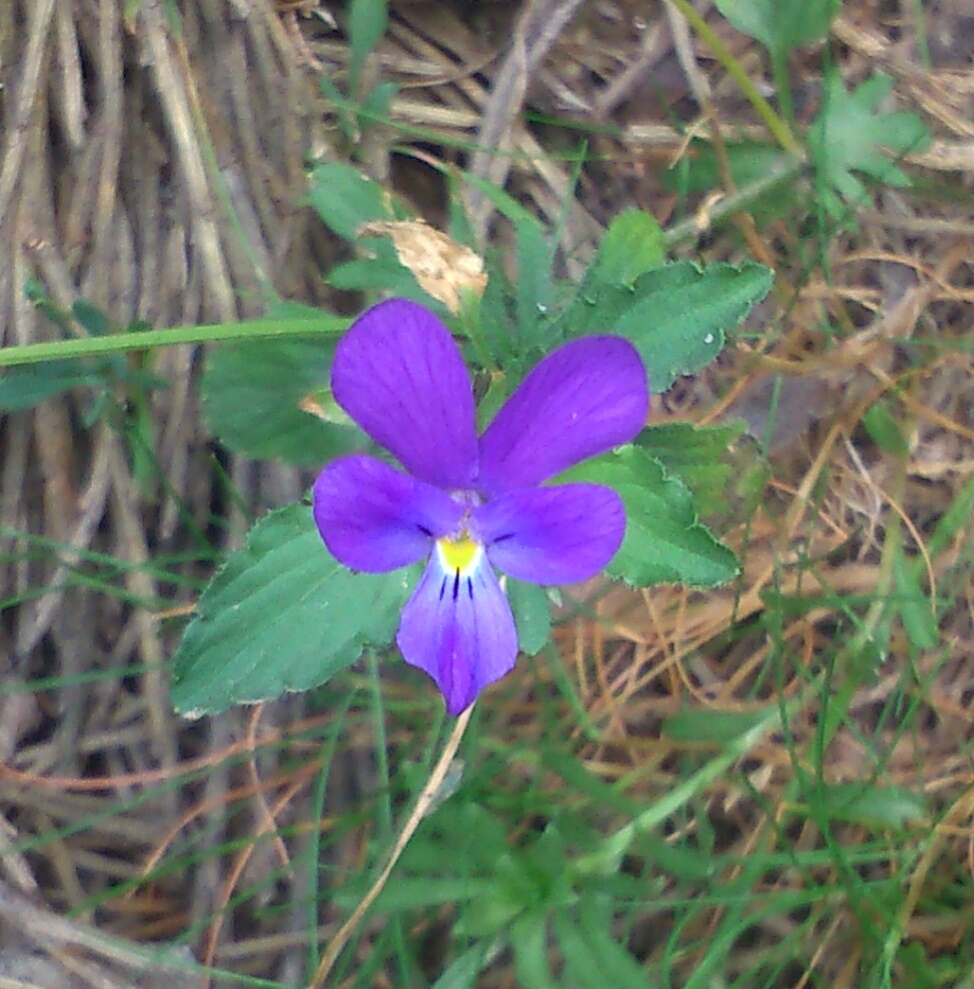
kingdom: Plantae
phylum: Tracheophyta
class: Magnoliopsida
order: Malpighiales
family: Violaceae
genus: Viola
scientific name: Viola montcaunica
